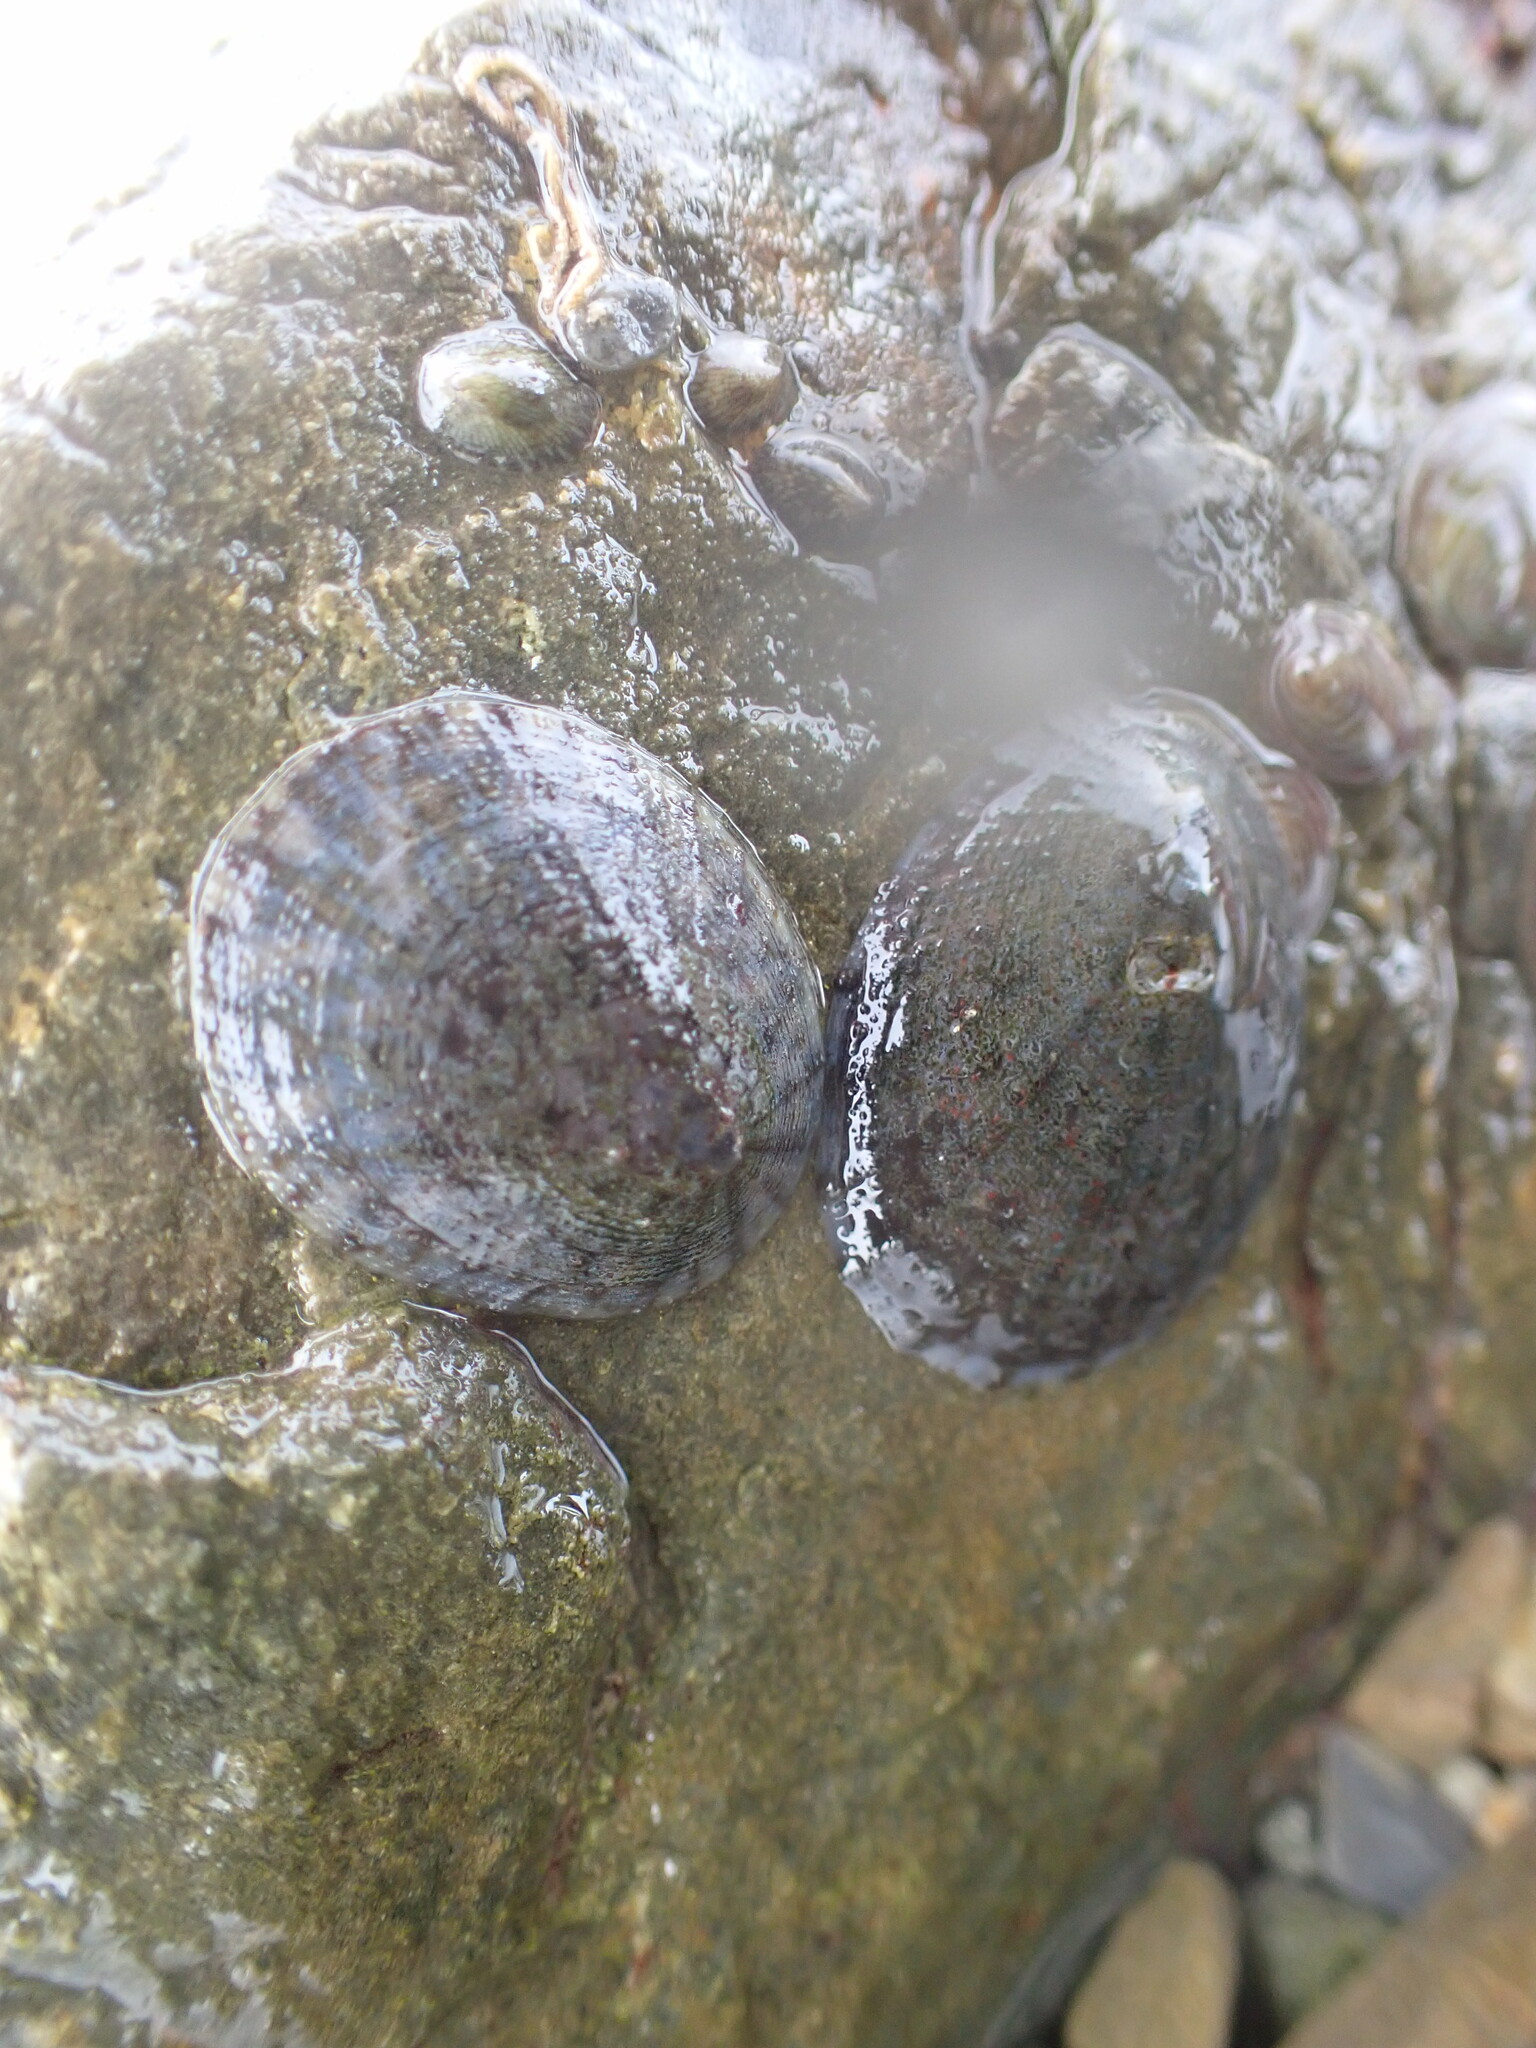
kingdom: Animalia
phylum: Mollusca
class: Gastropoda
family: Nacellidae
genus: Cellana
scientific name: Cellana radians
